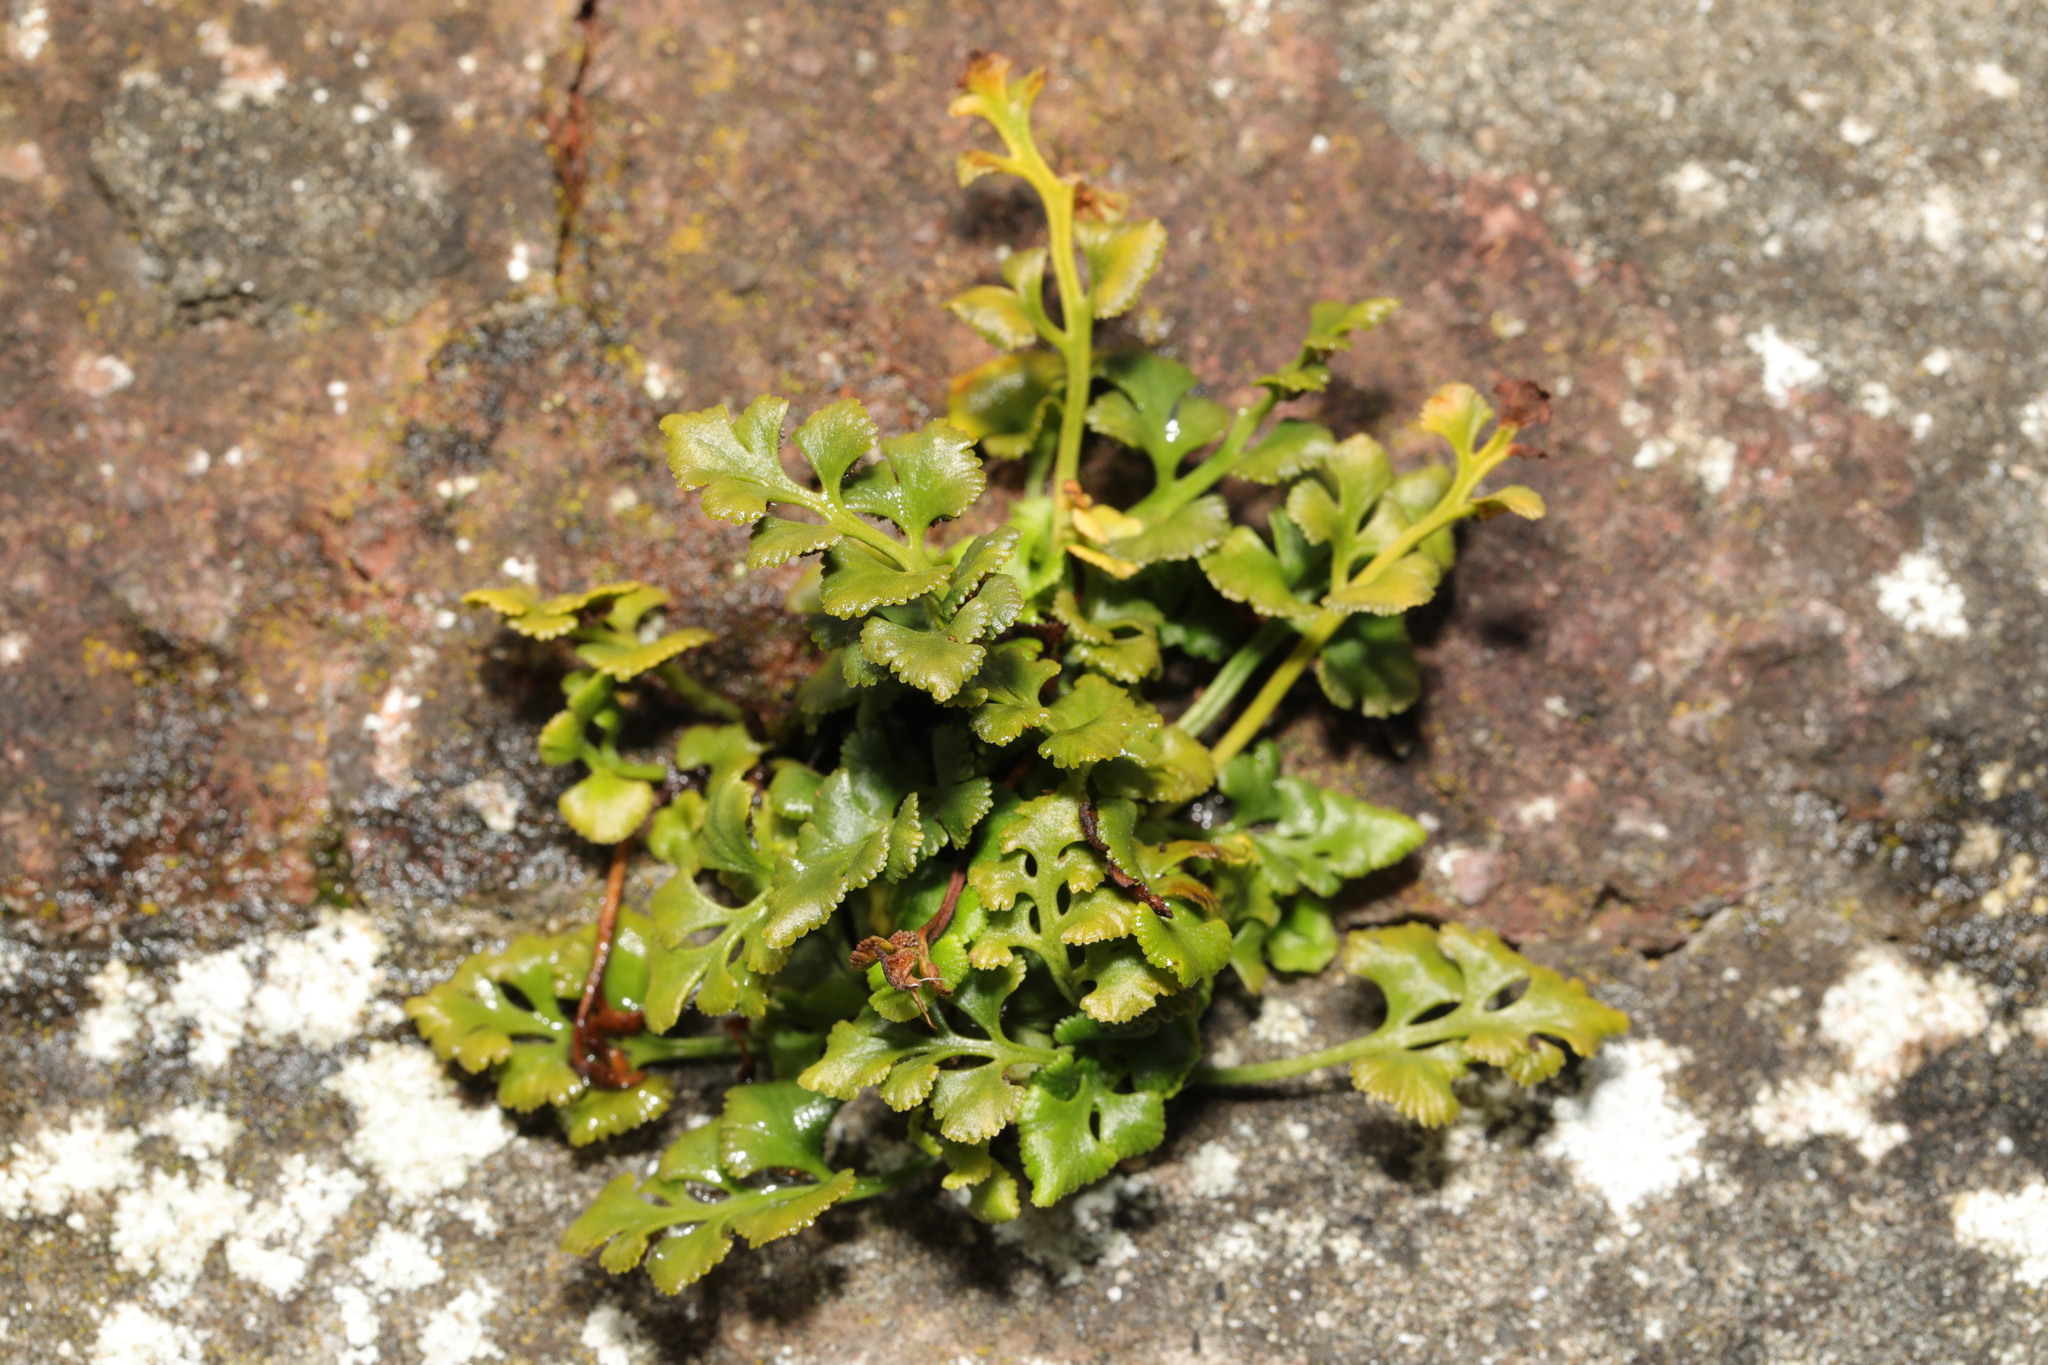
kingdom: Plantae
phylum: Tracheophyta
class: Polypodiopsida
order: Polypodiales
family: Aspleniaceae
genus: Asplenium
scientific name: Asplenium ruta-muraria
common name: Wall-rue
